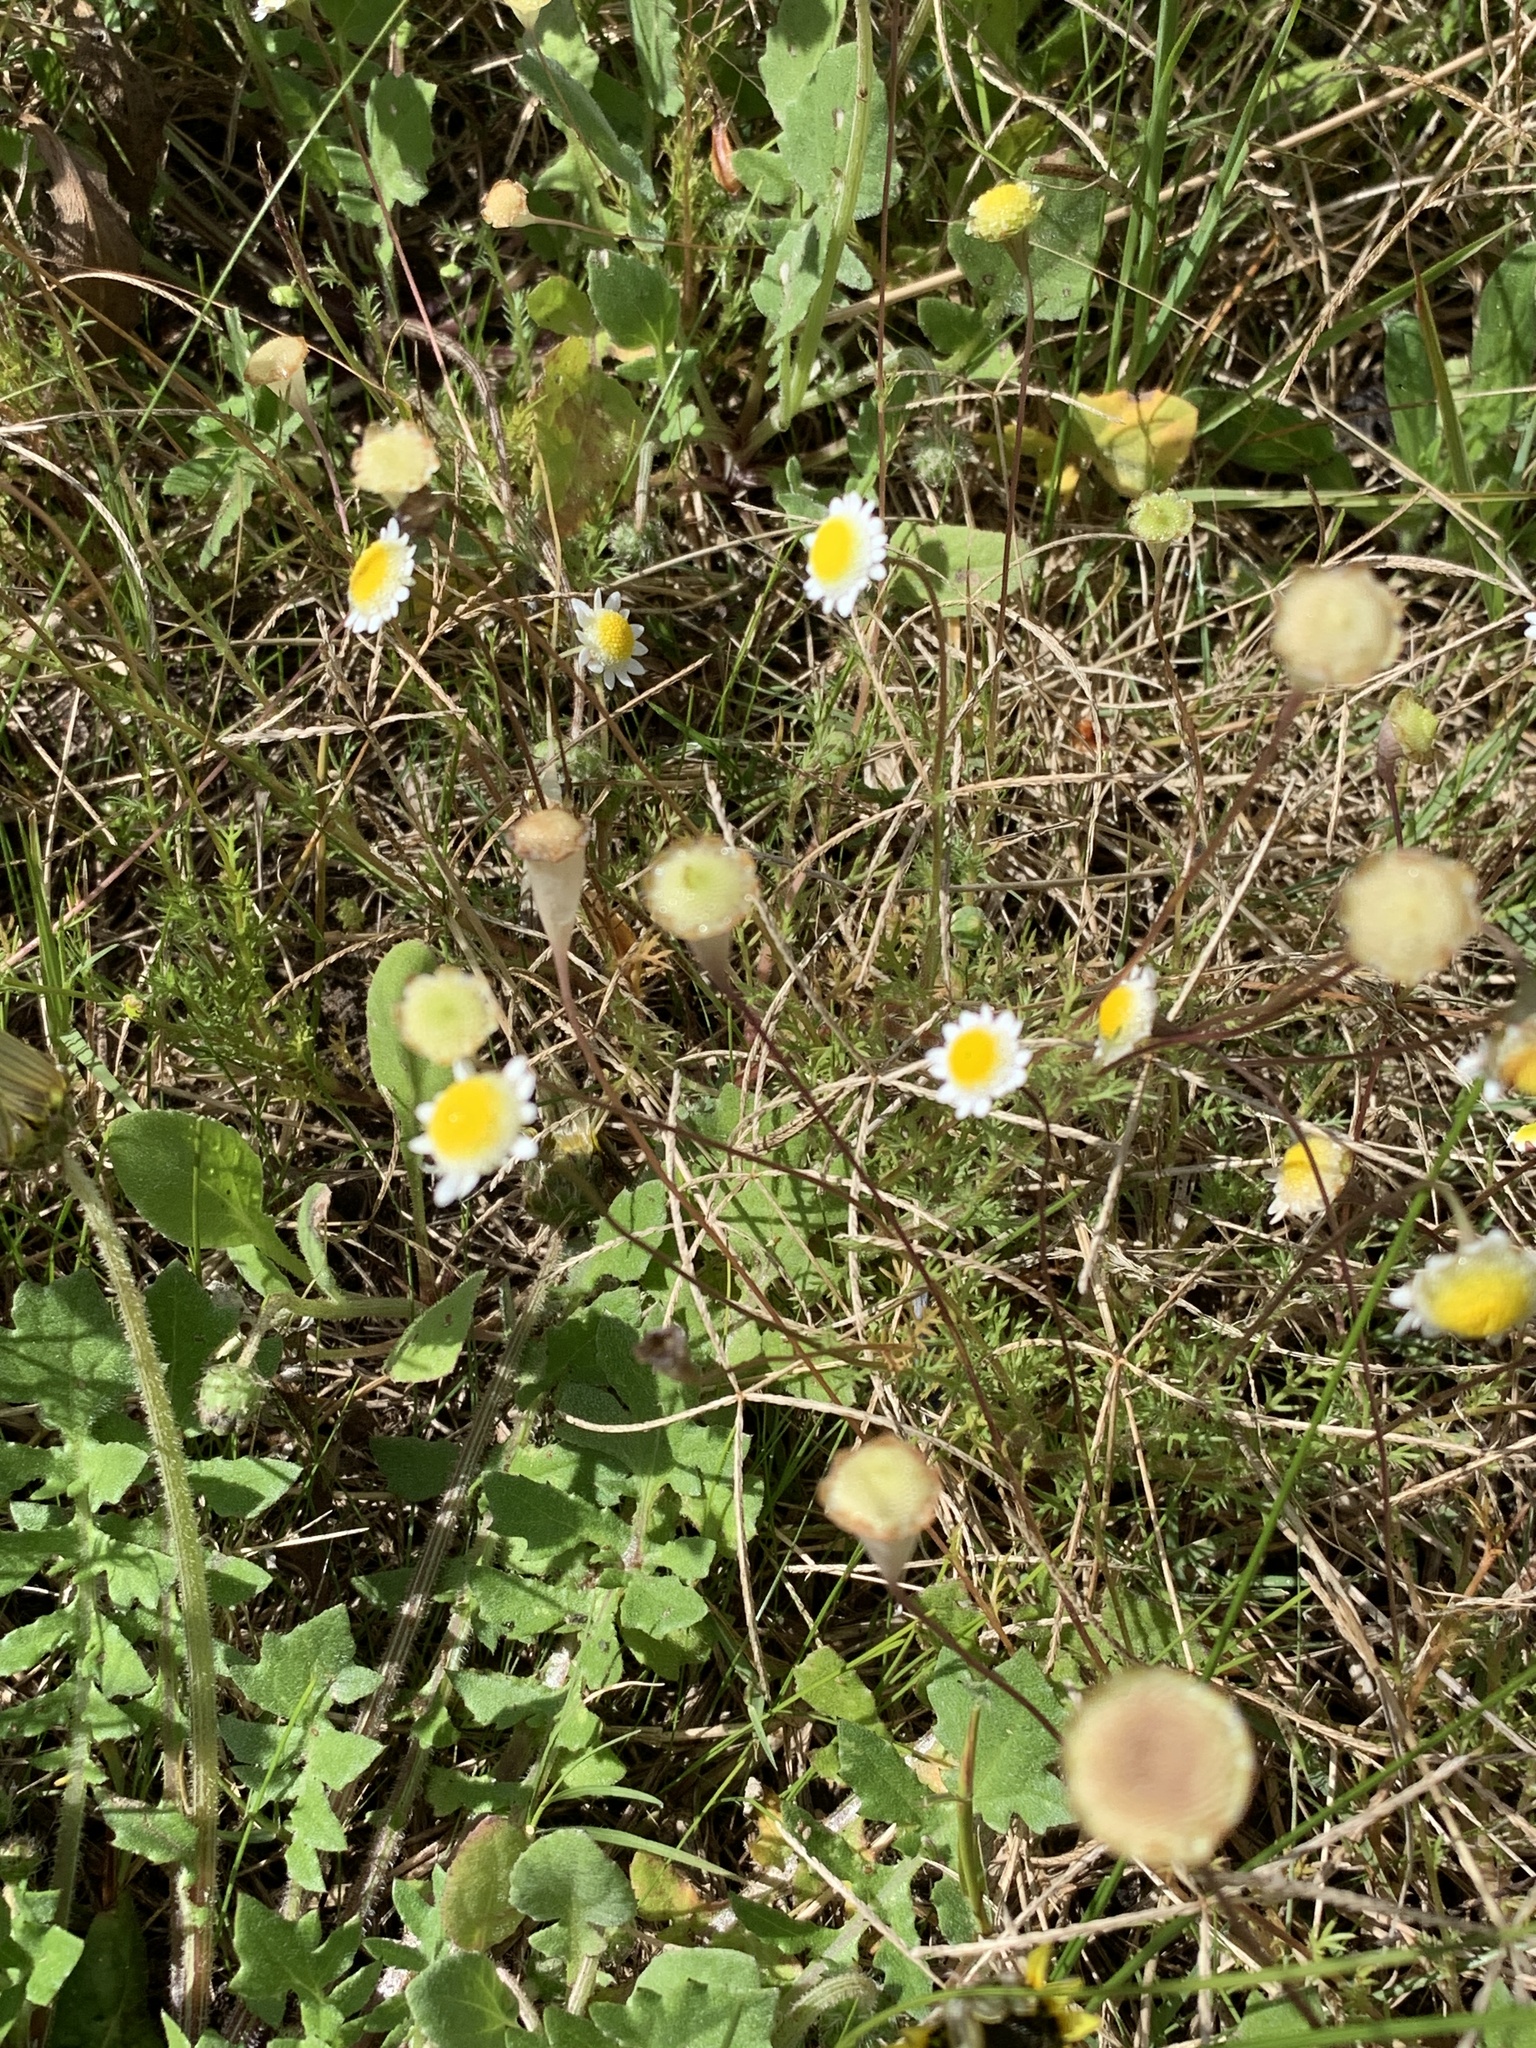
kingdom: Plantae
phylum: Tracheophyta
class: Magnoliopsida
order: Asterales
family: Asteraceae
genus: Cotula
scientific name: Cotula turbinata
